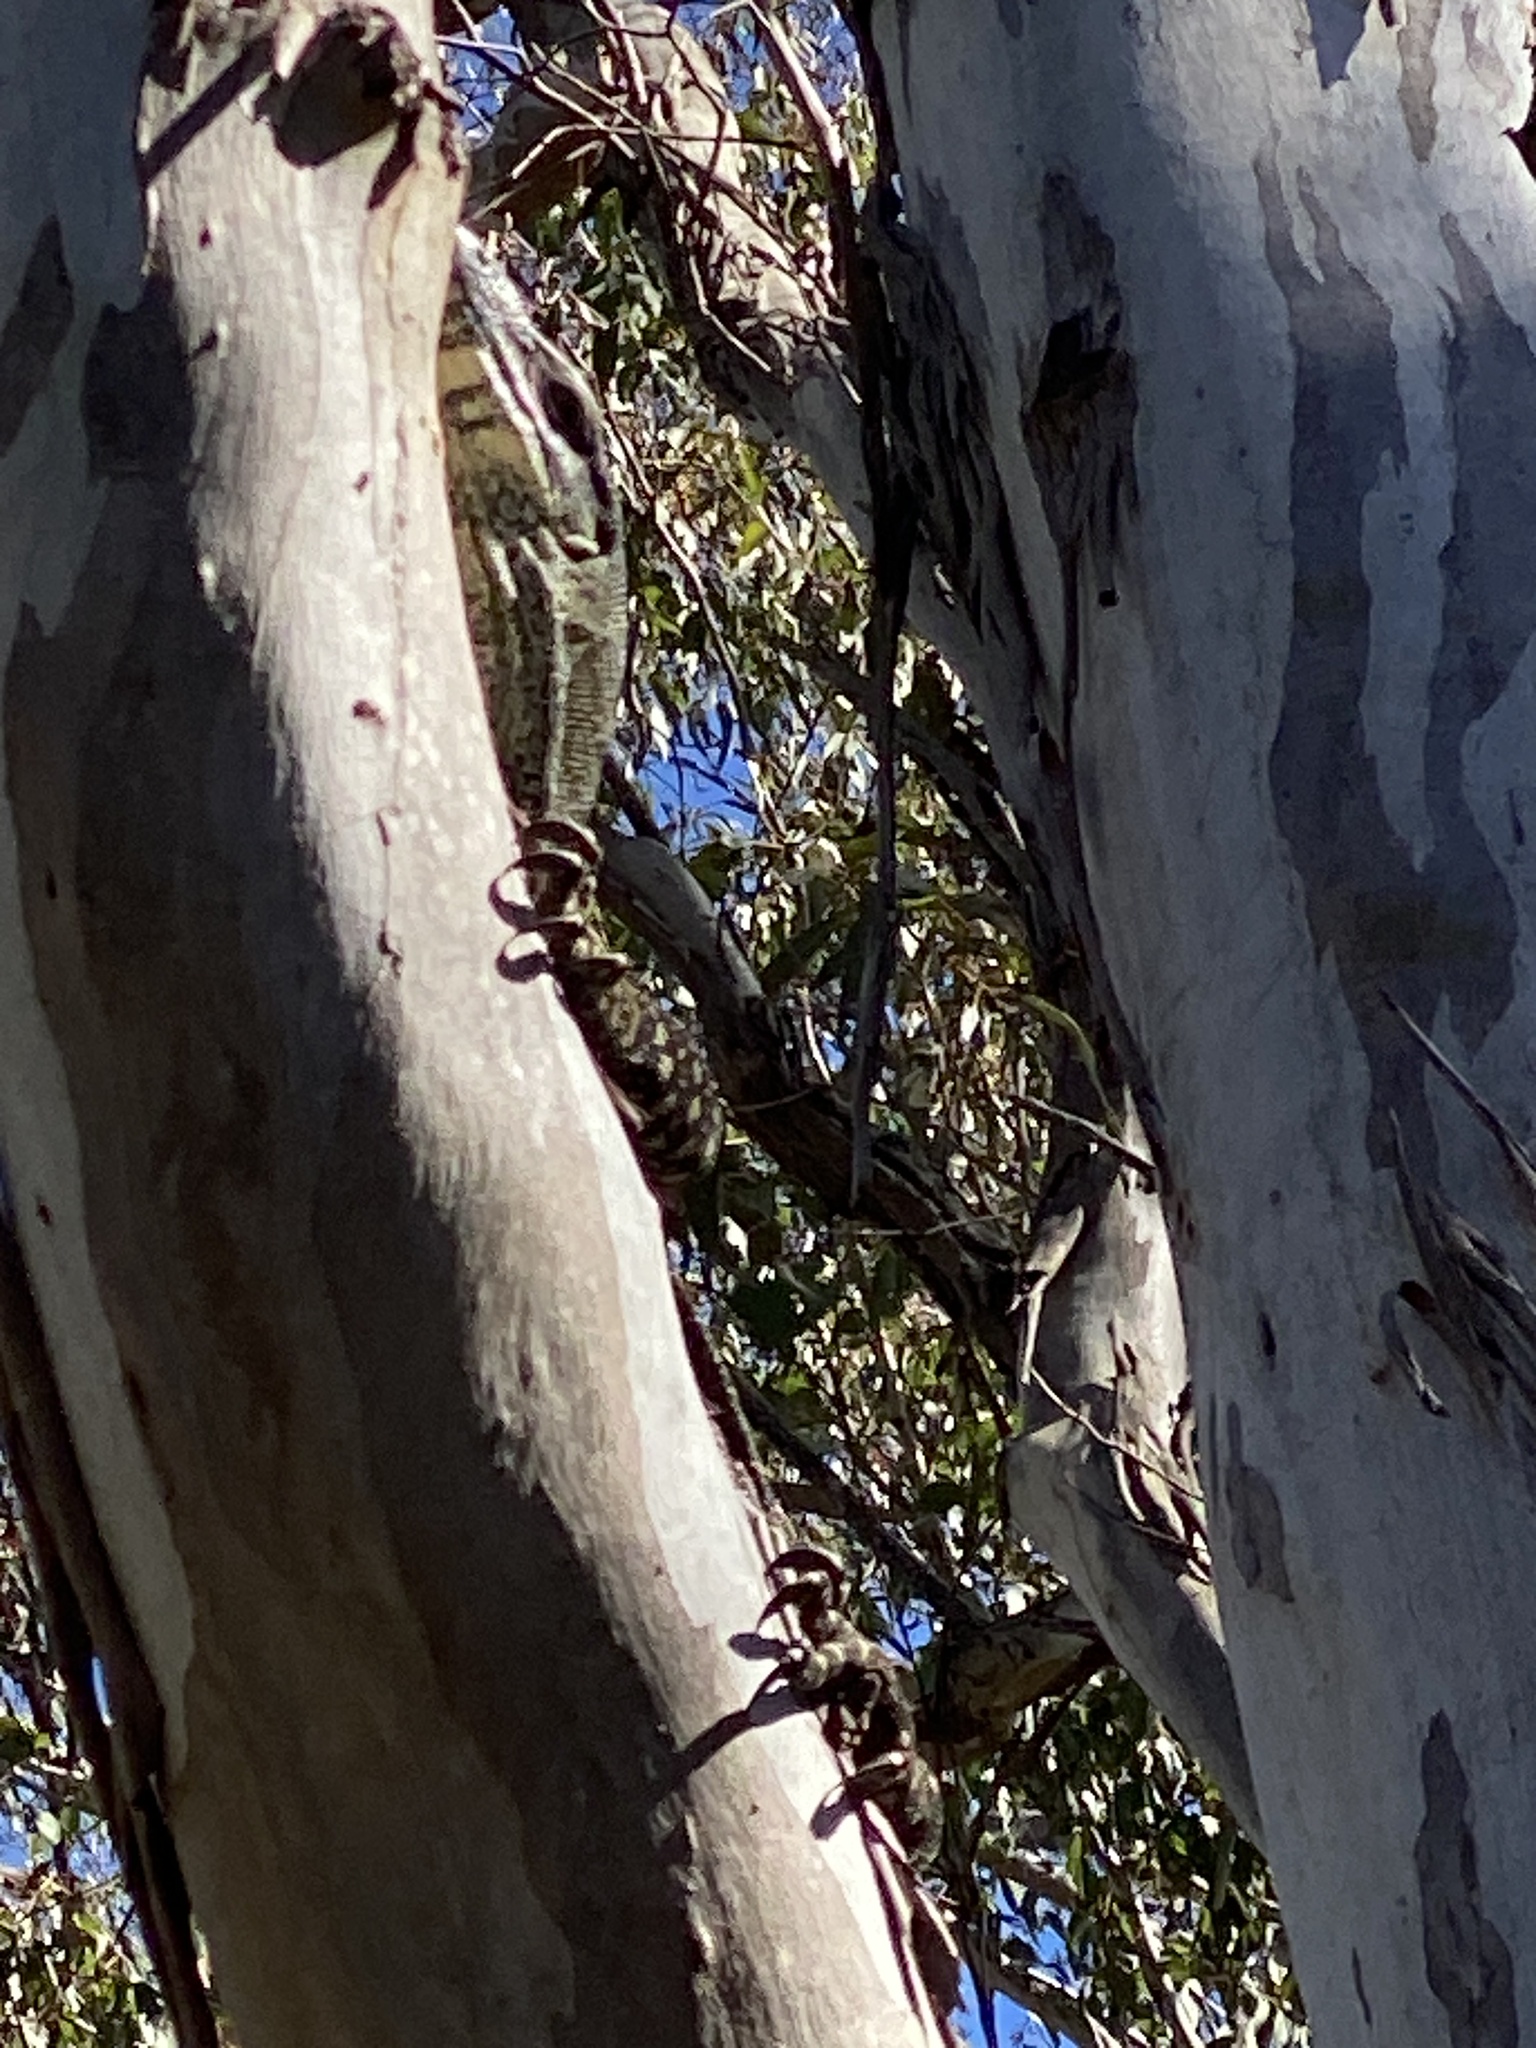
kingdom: Animalia
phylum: Chordata
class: Squamata
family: Varanidae
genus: Varanus
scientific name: Varanus varius
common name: Lace monitor
